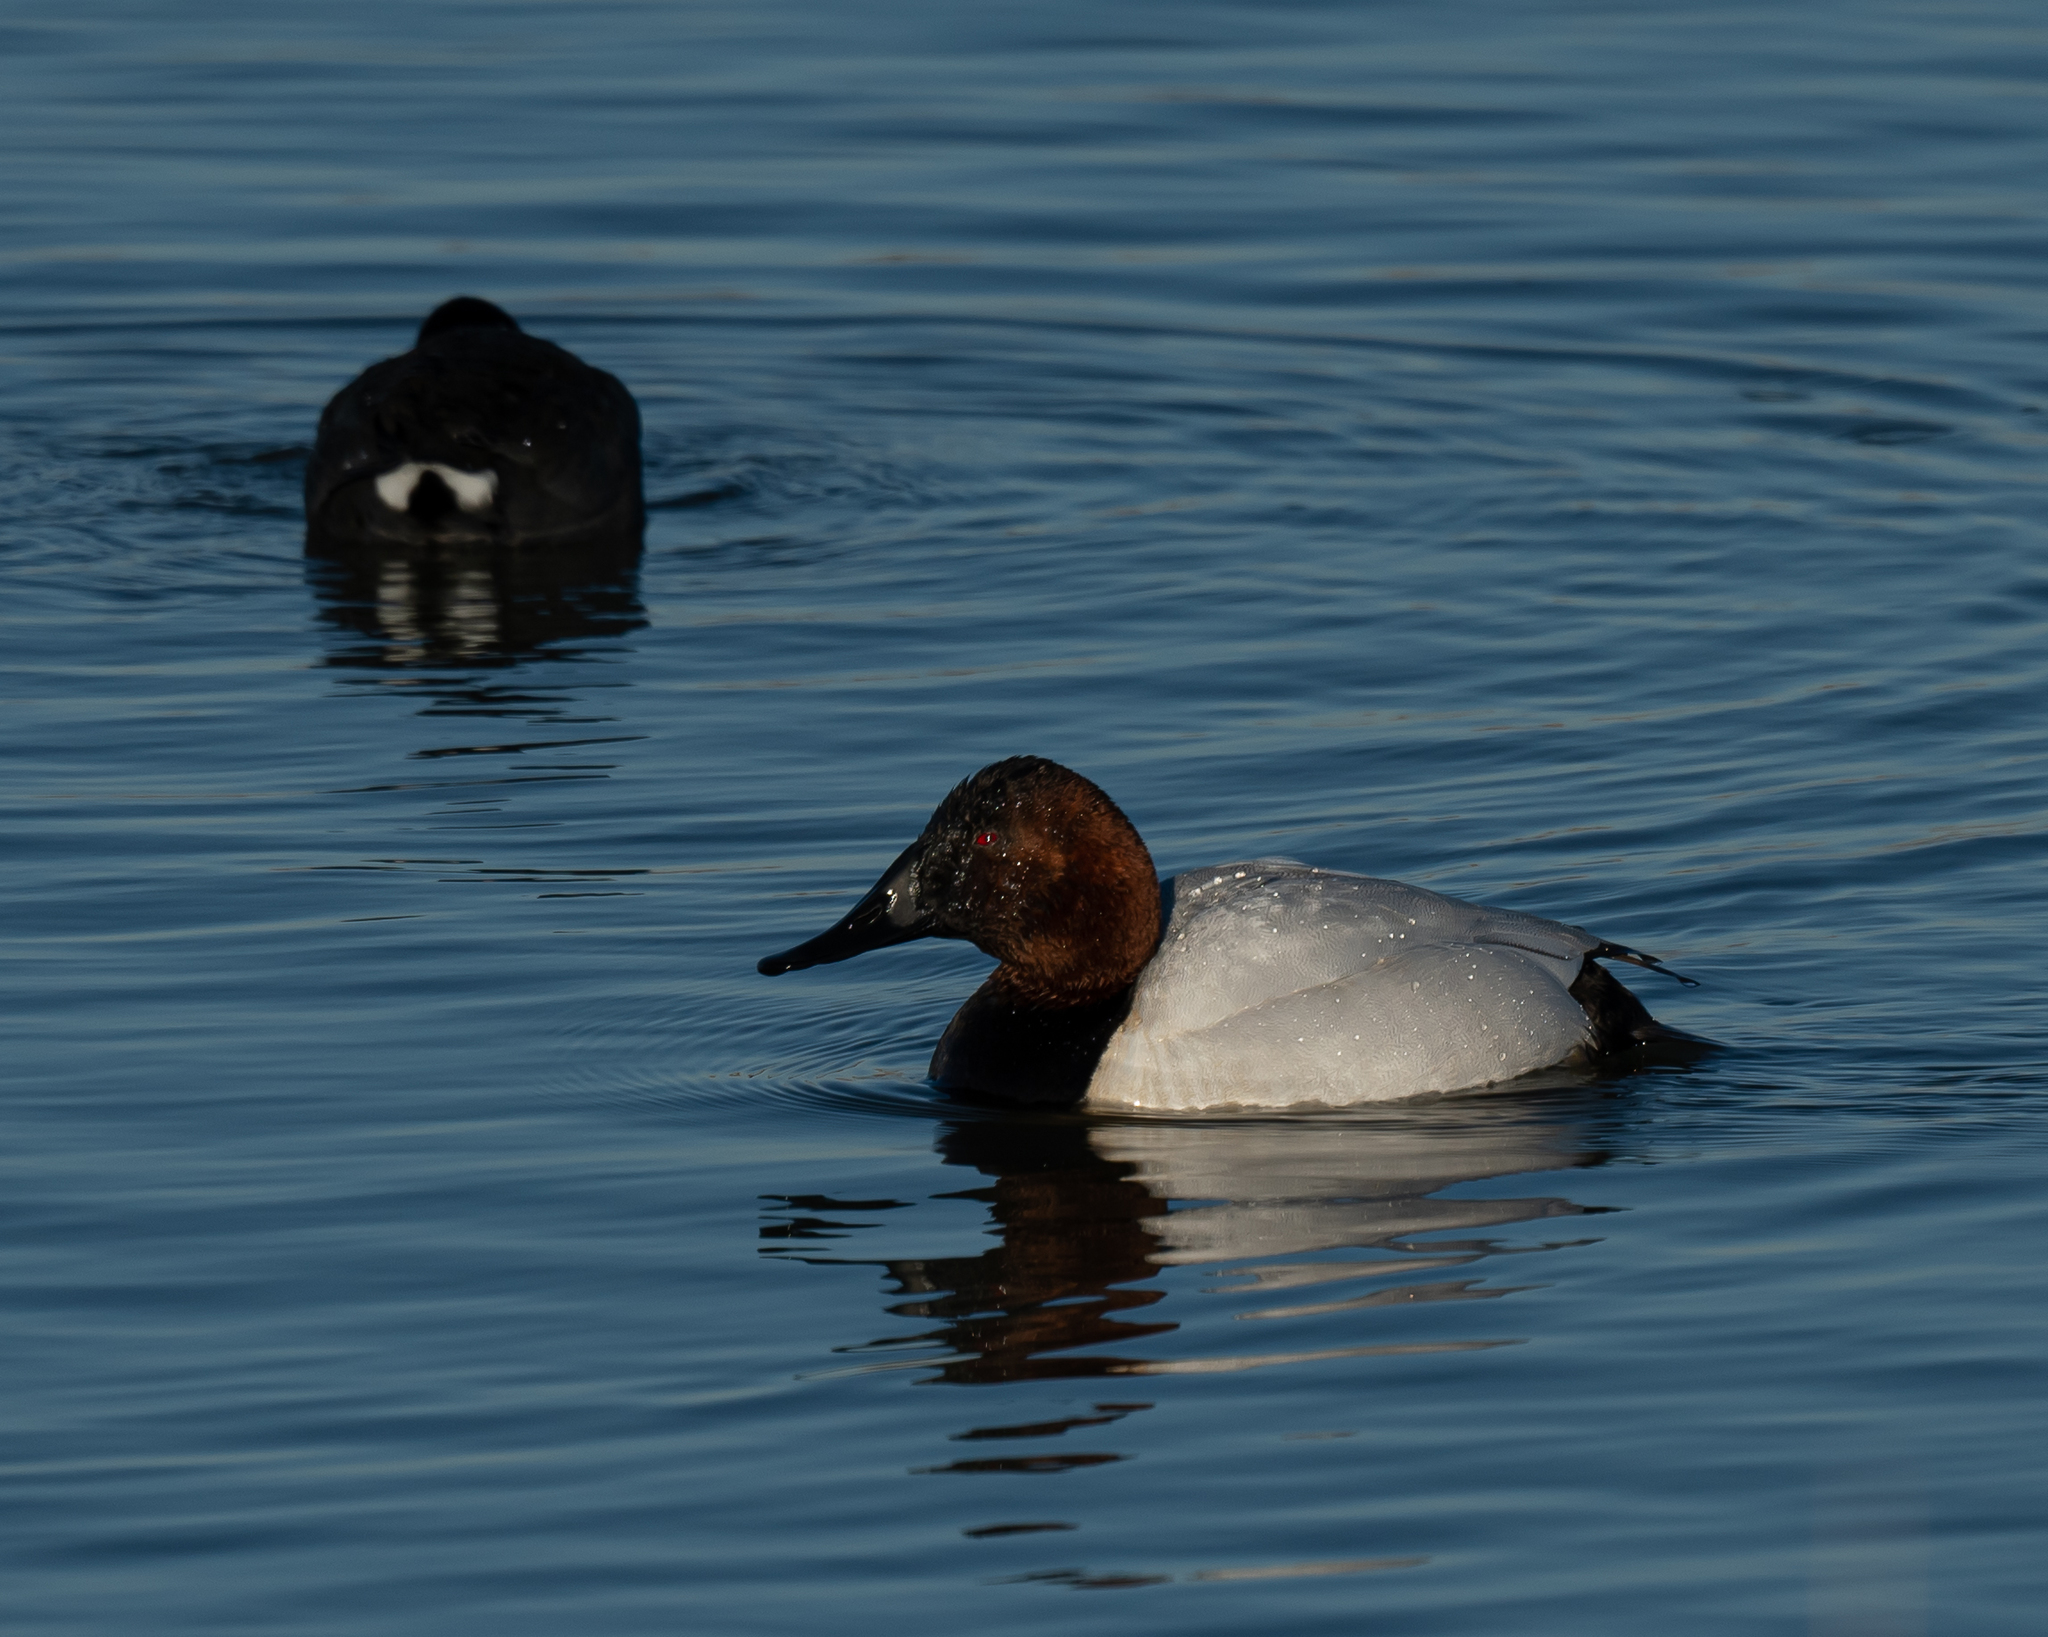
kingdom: Animalia
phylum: Chordata
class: Aves
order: Anseriformes
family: Anatidae
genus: Aythya
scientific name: Aythya valisineria
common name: Canvasback
